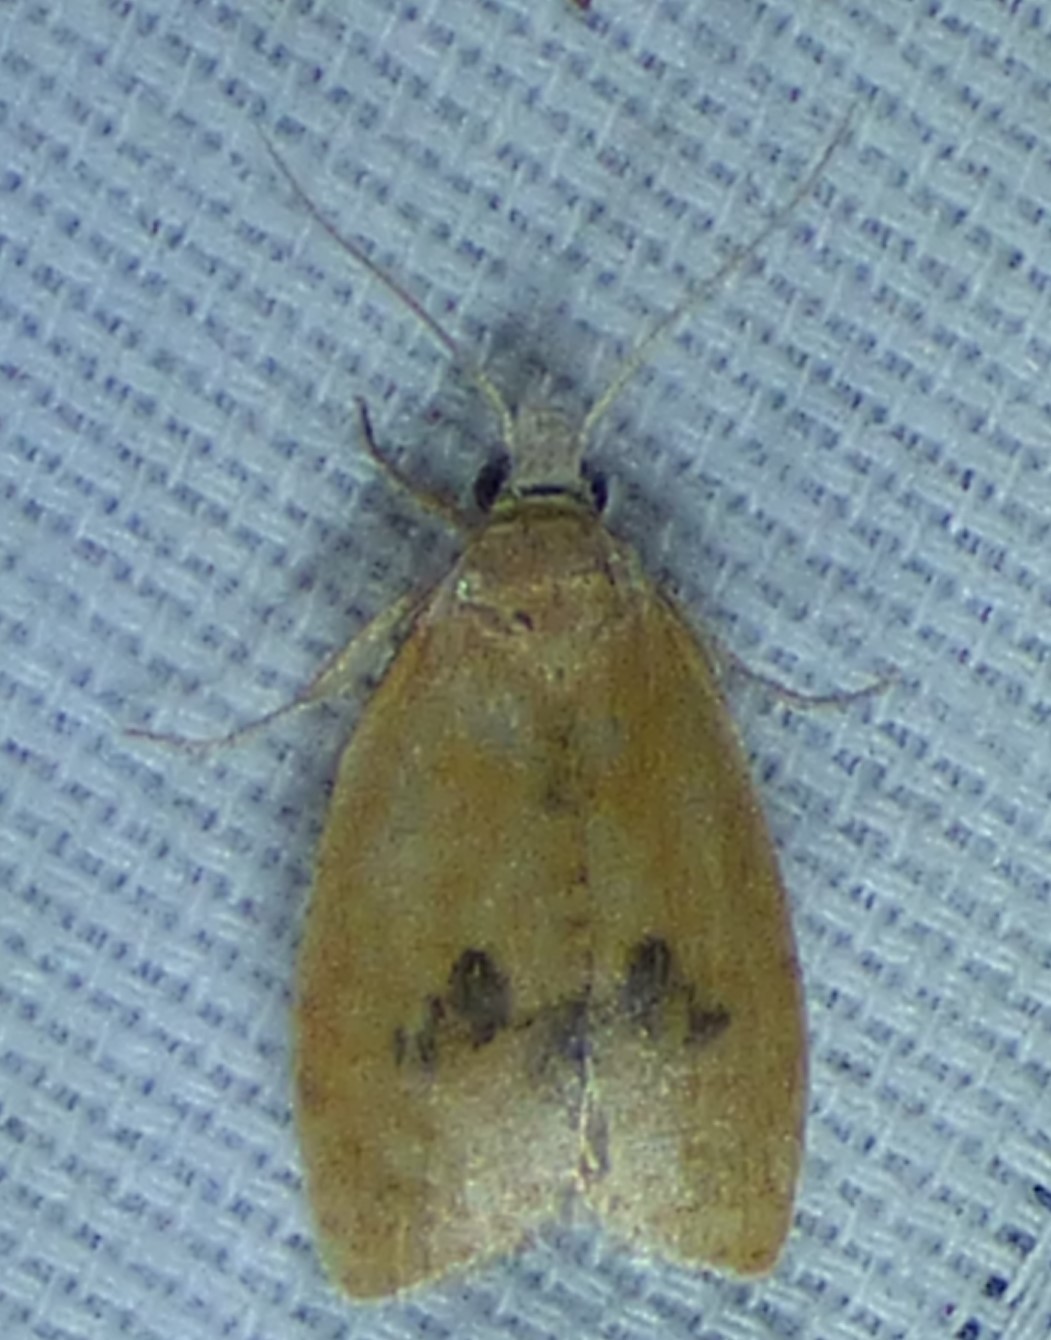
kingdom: Animalia
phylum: Arthropoda
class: Insecta
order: Lepidoptera
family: Tortricidae
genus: Sparganothoides
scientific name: Sparganothoides lentiginosana
